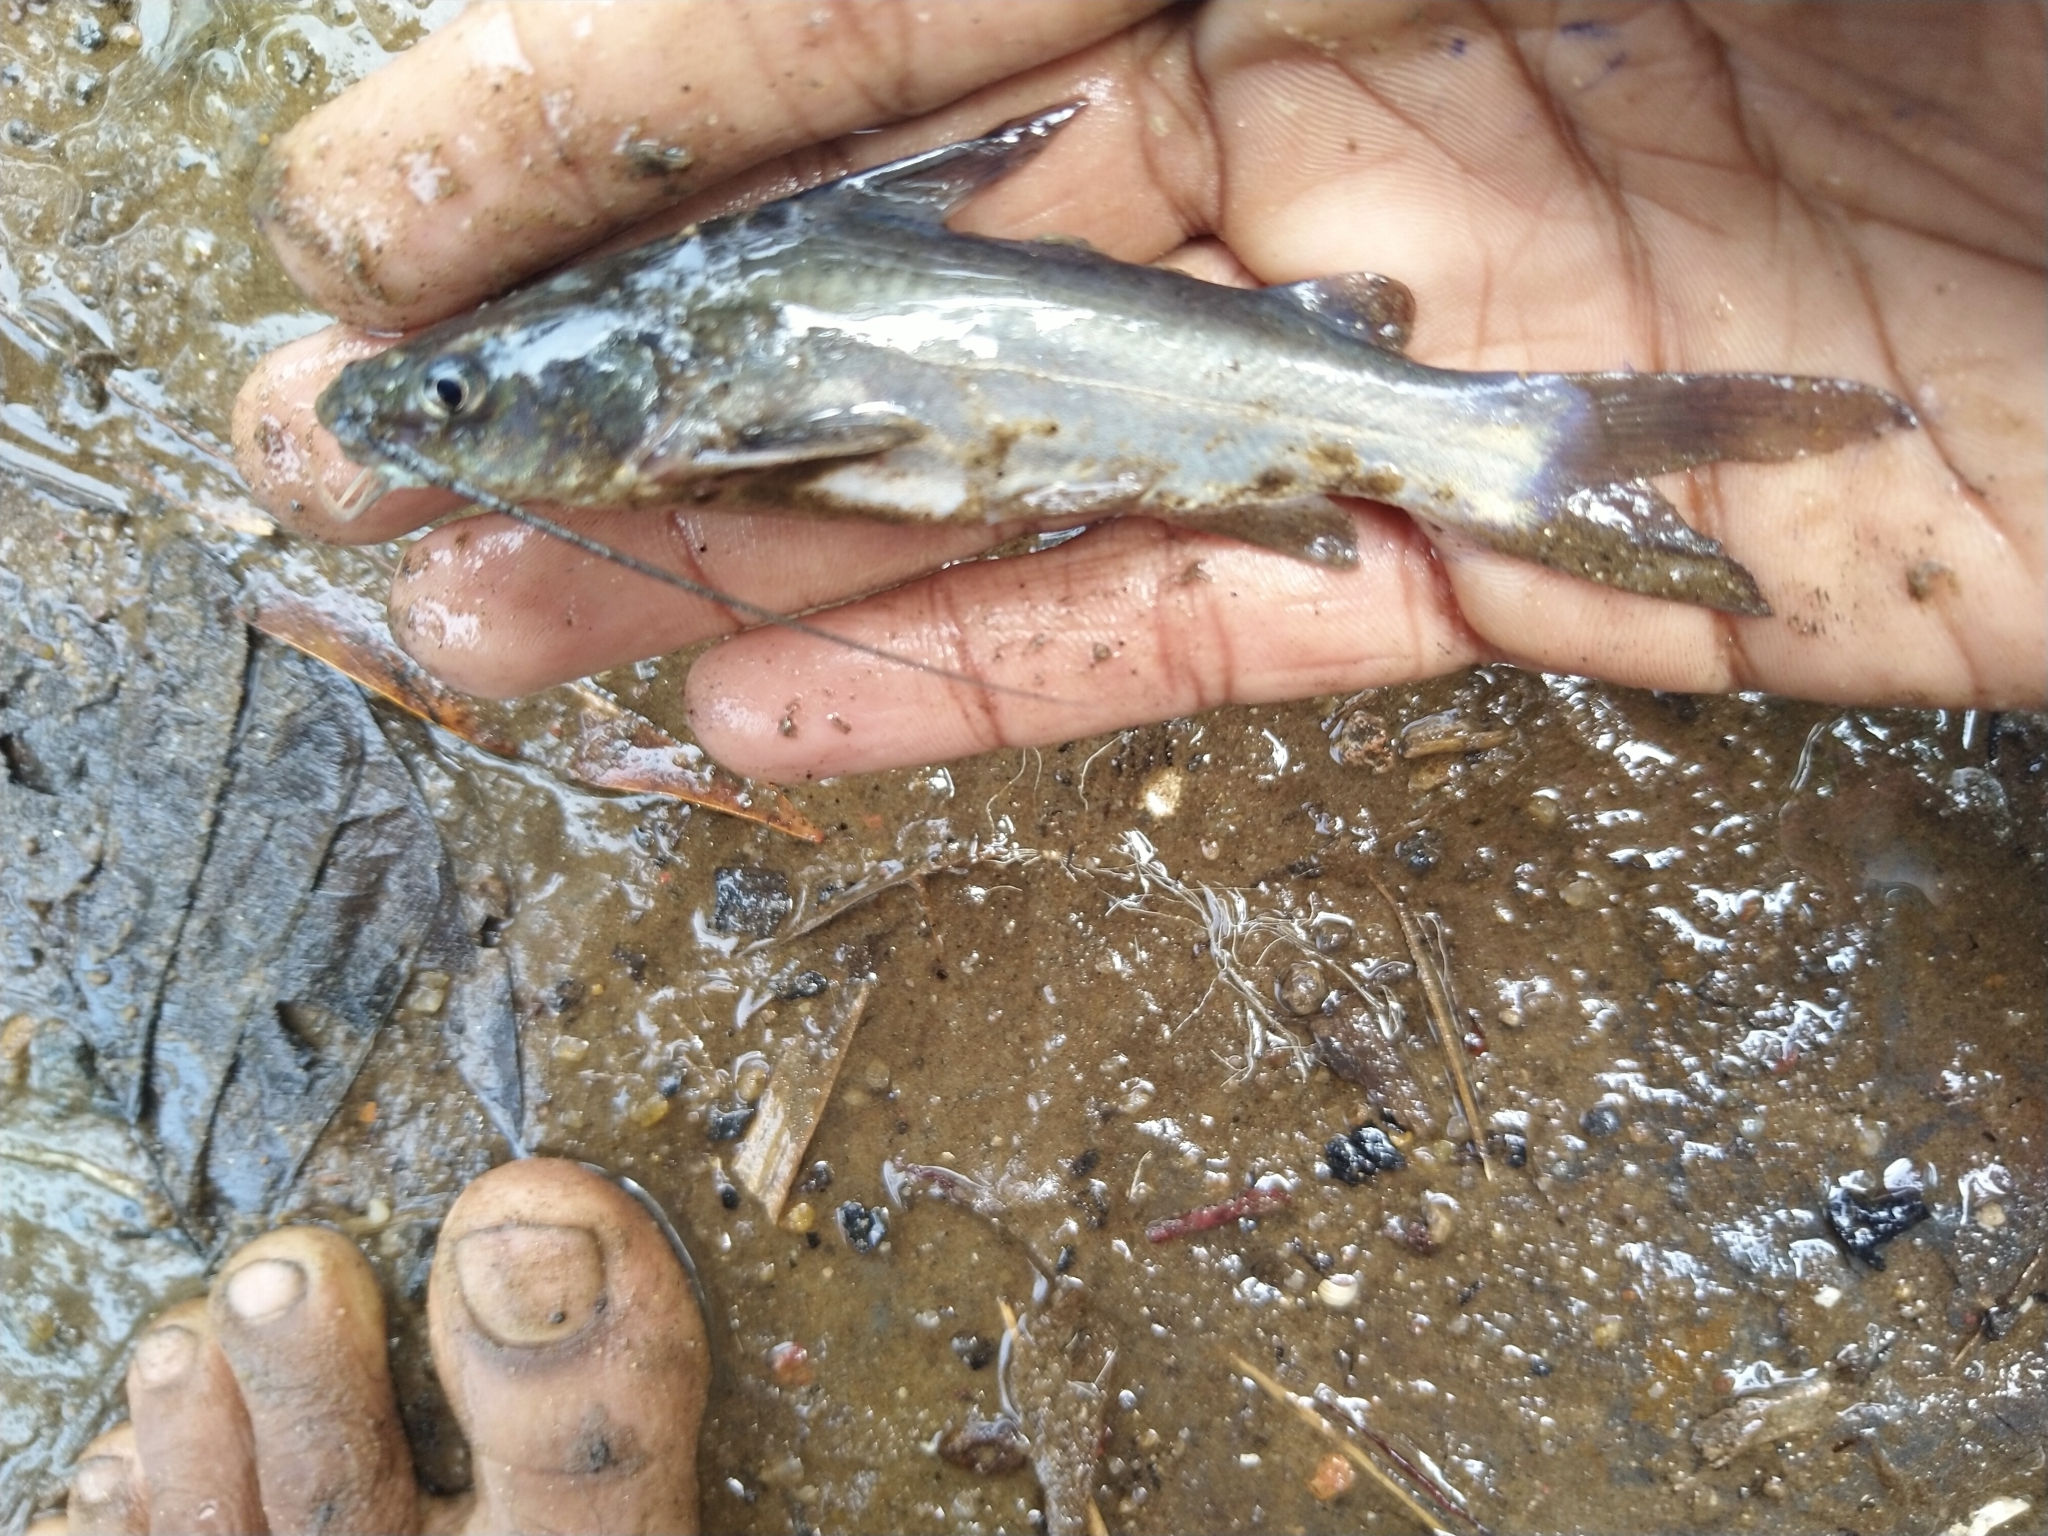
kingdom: Animalia
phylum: Chordata
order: Siluriformes
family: Bagridae
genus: Mystus
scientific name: Mystus gulio
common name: Long whiskers catfish
